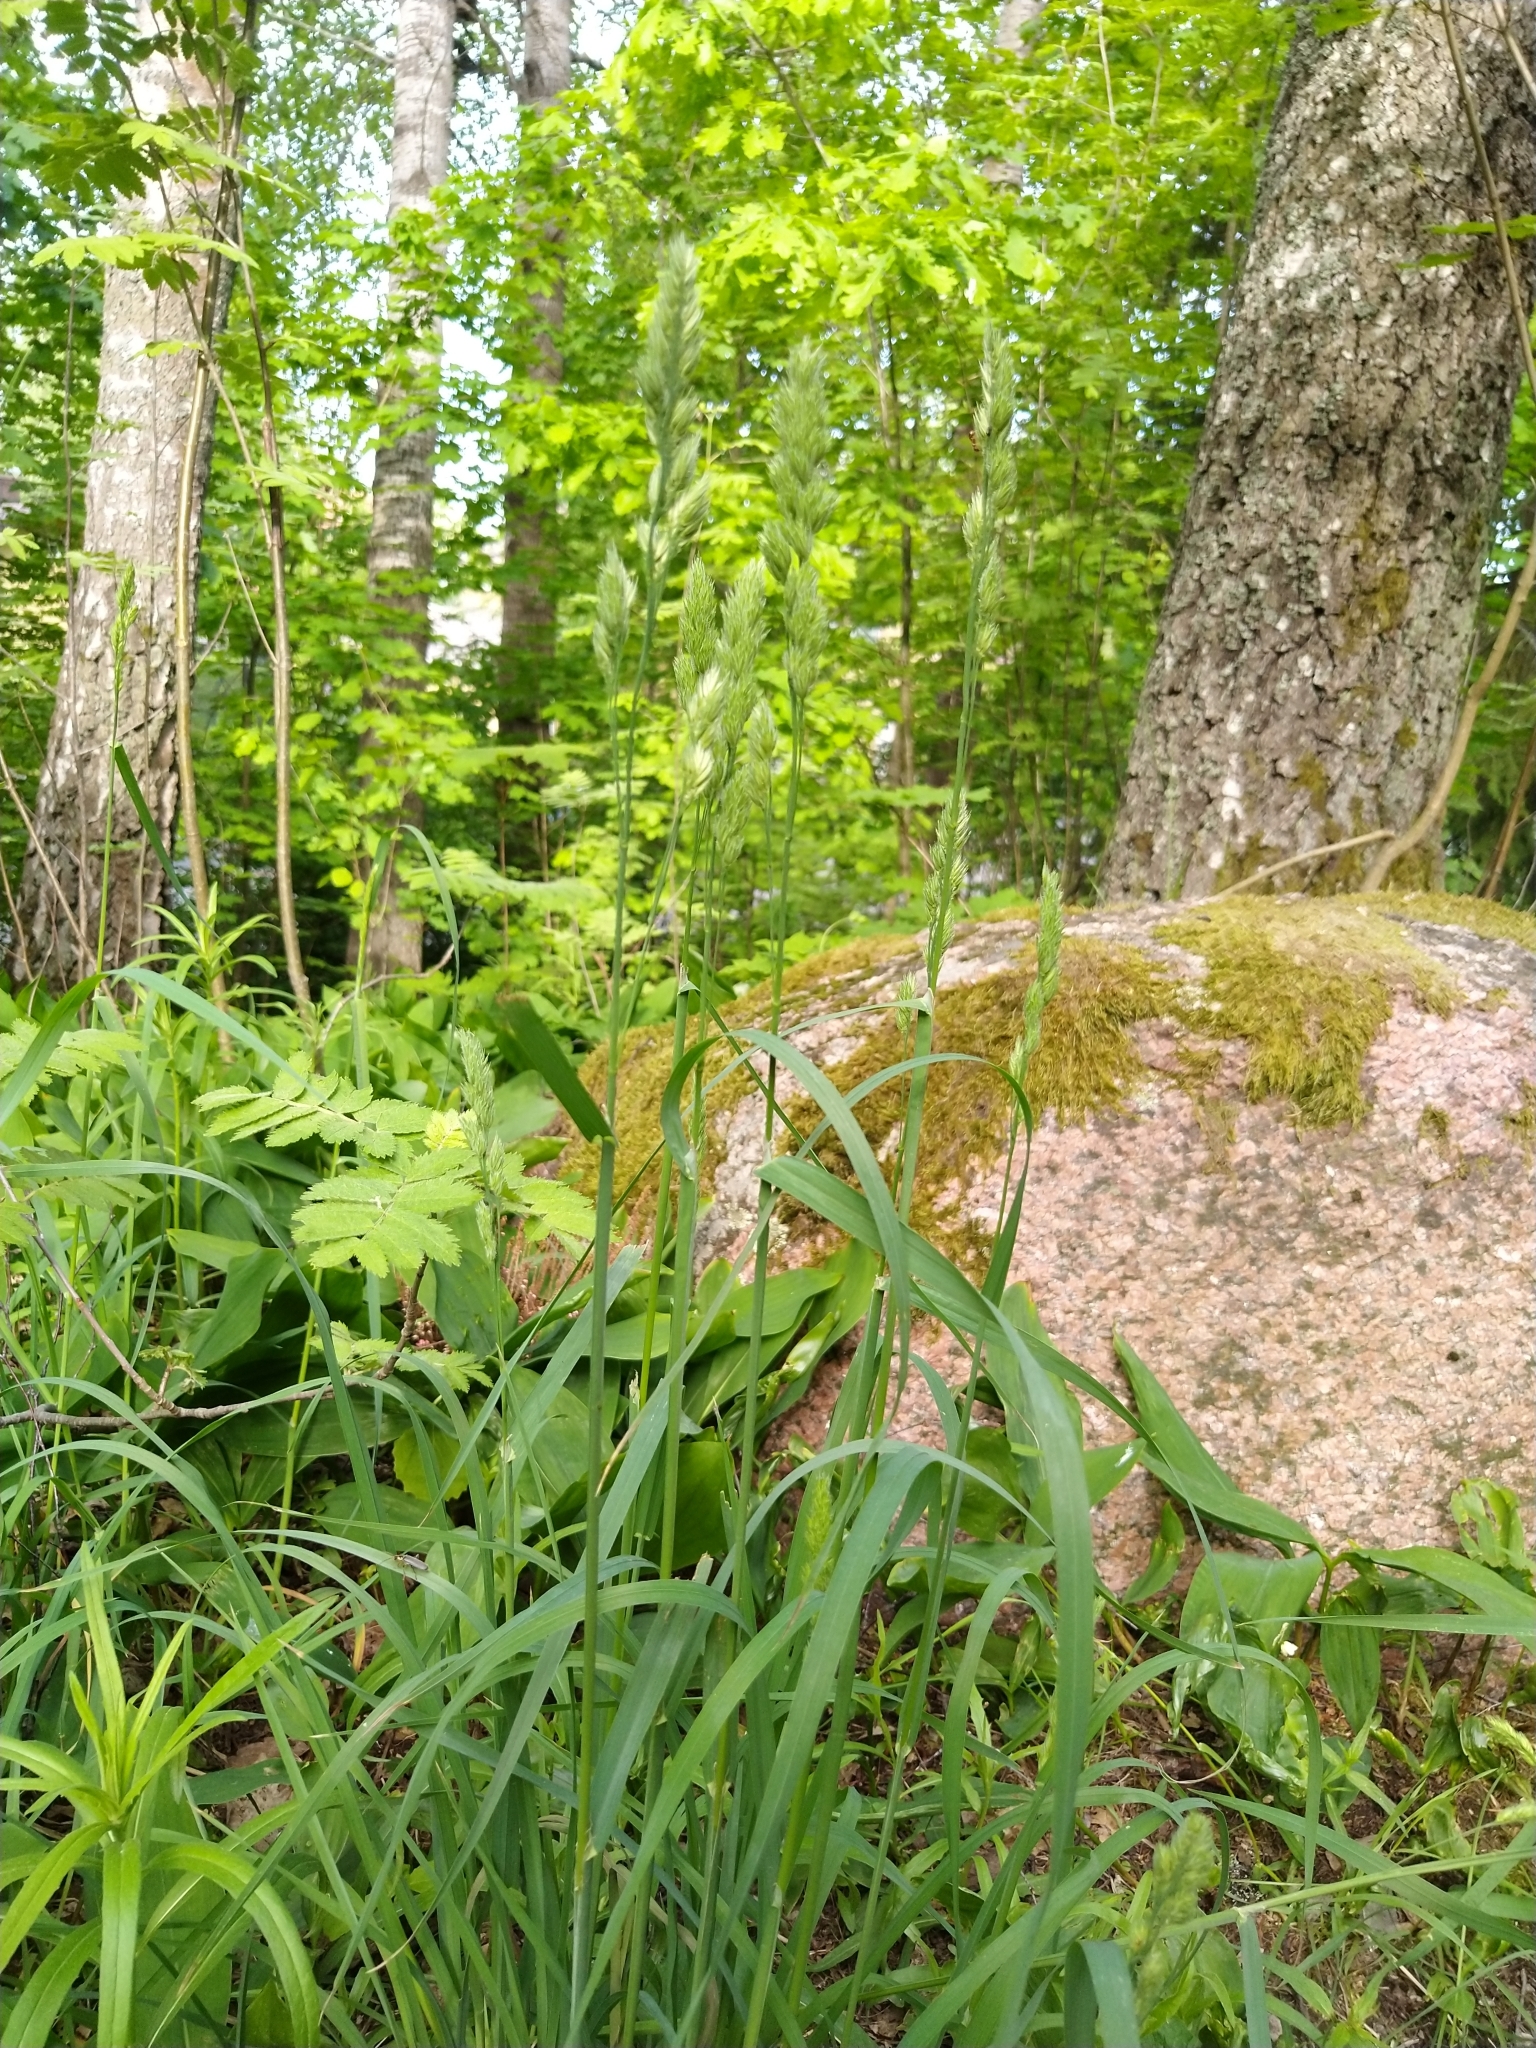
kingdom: Plantae
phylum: Tracheophyta
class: Liliopsida
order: Poales
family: Poaceae
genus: Dactylis
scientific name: Dactylis glomerata
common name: Orchardgrass
